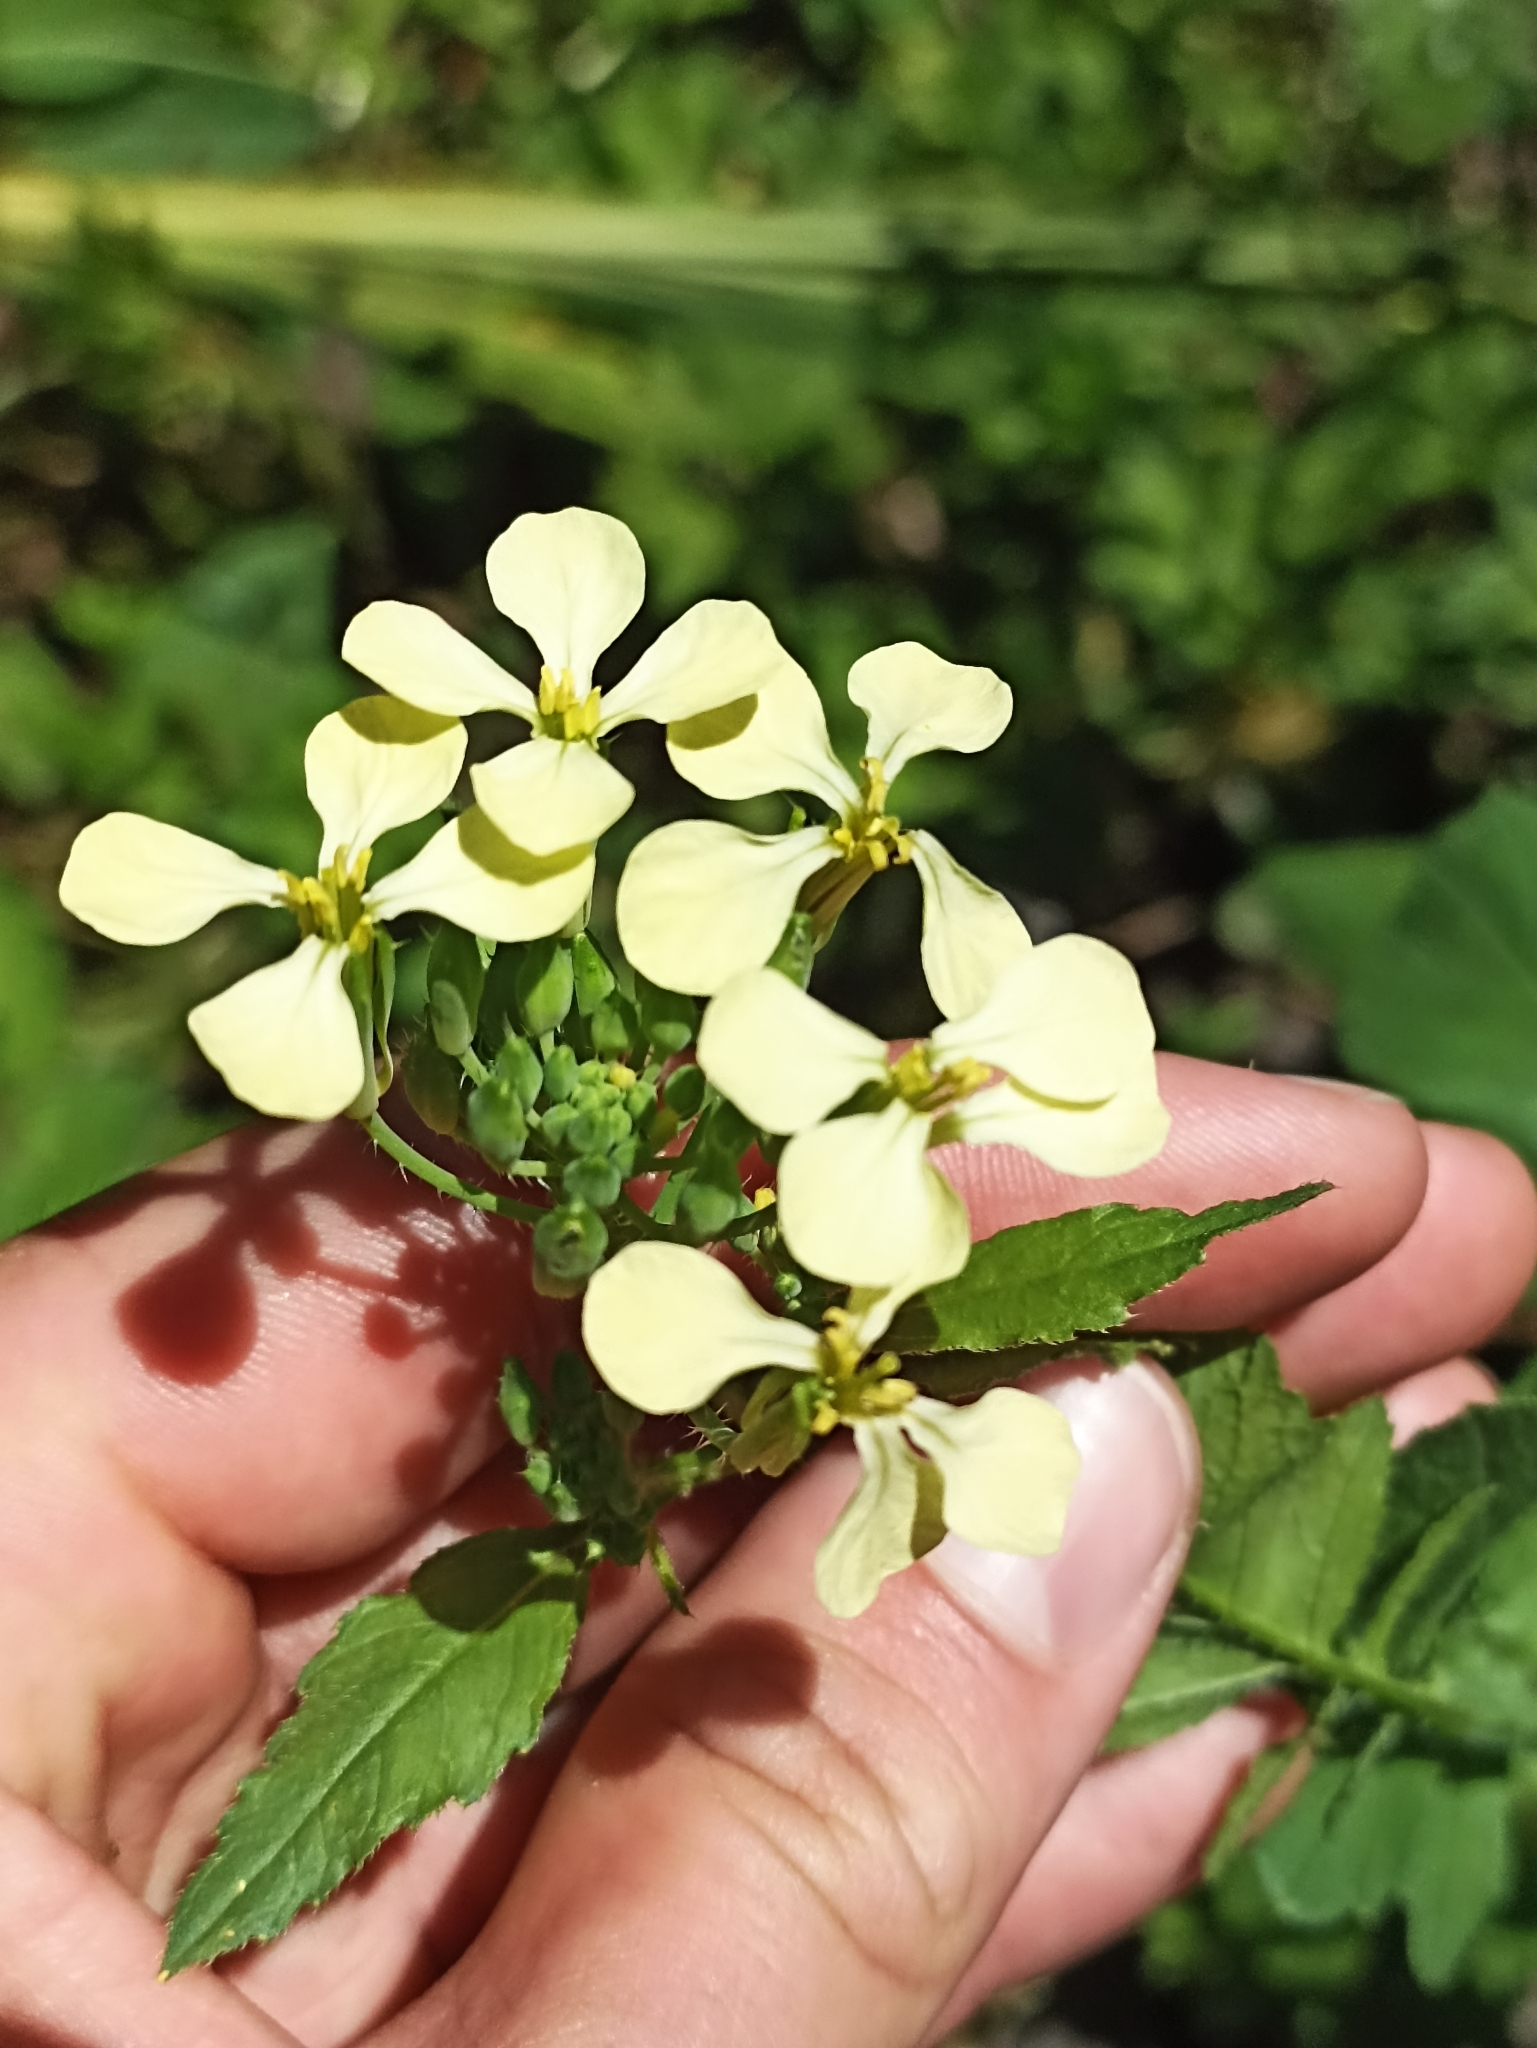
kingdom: Plantae
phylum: Tracheophyta
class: Magnoliopsida
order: Brassicales
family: Brassicaceae
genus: Raphanus
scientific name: Raphanus raphanistrum
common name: Wild radish
